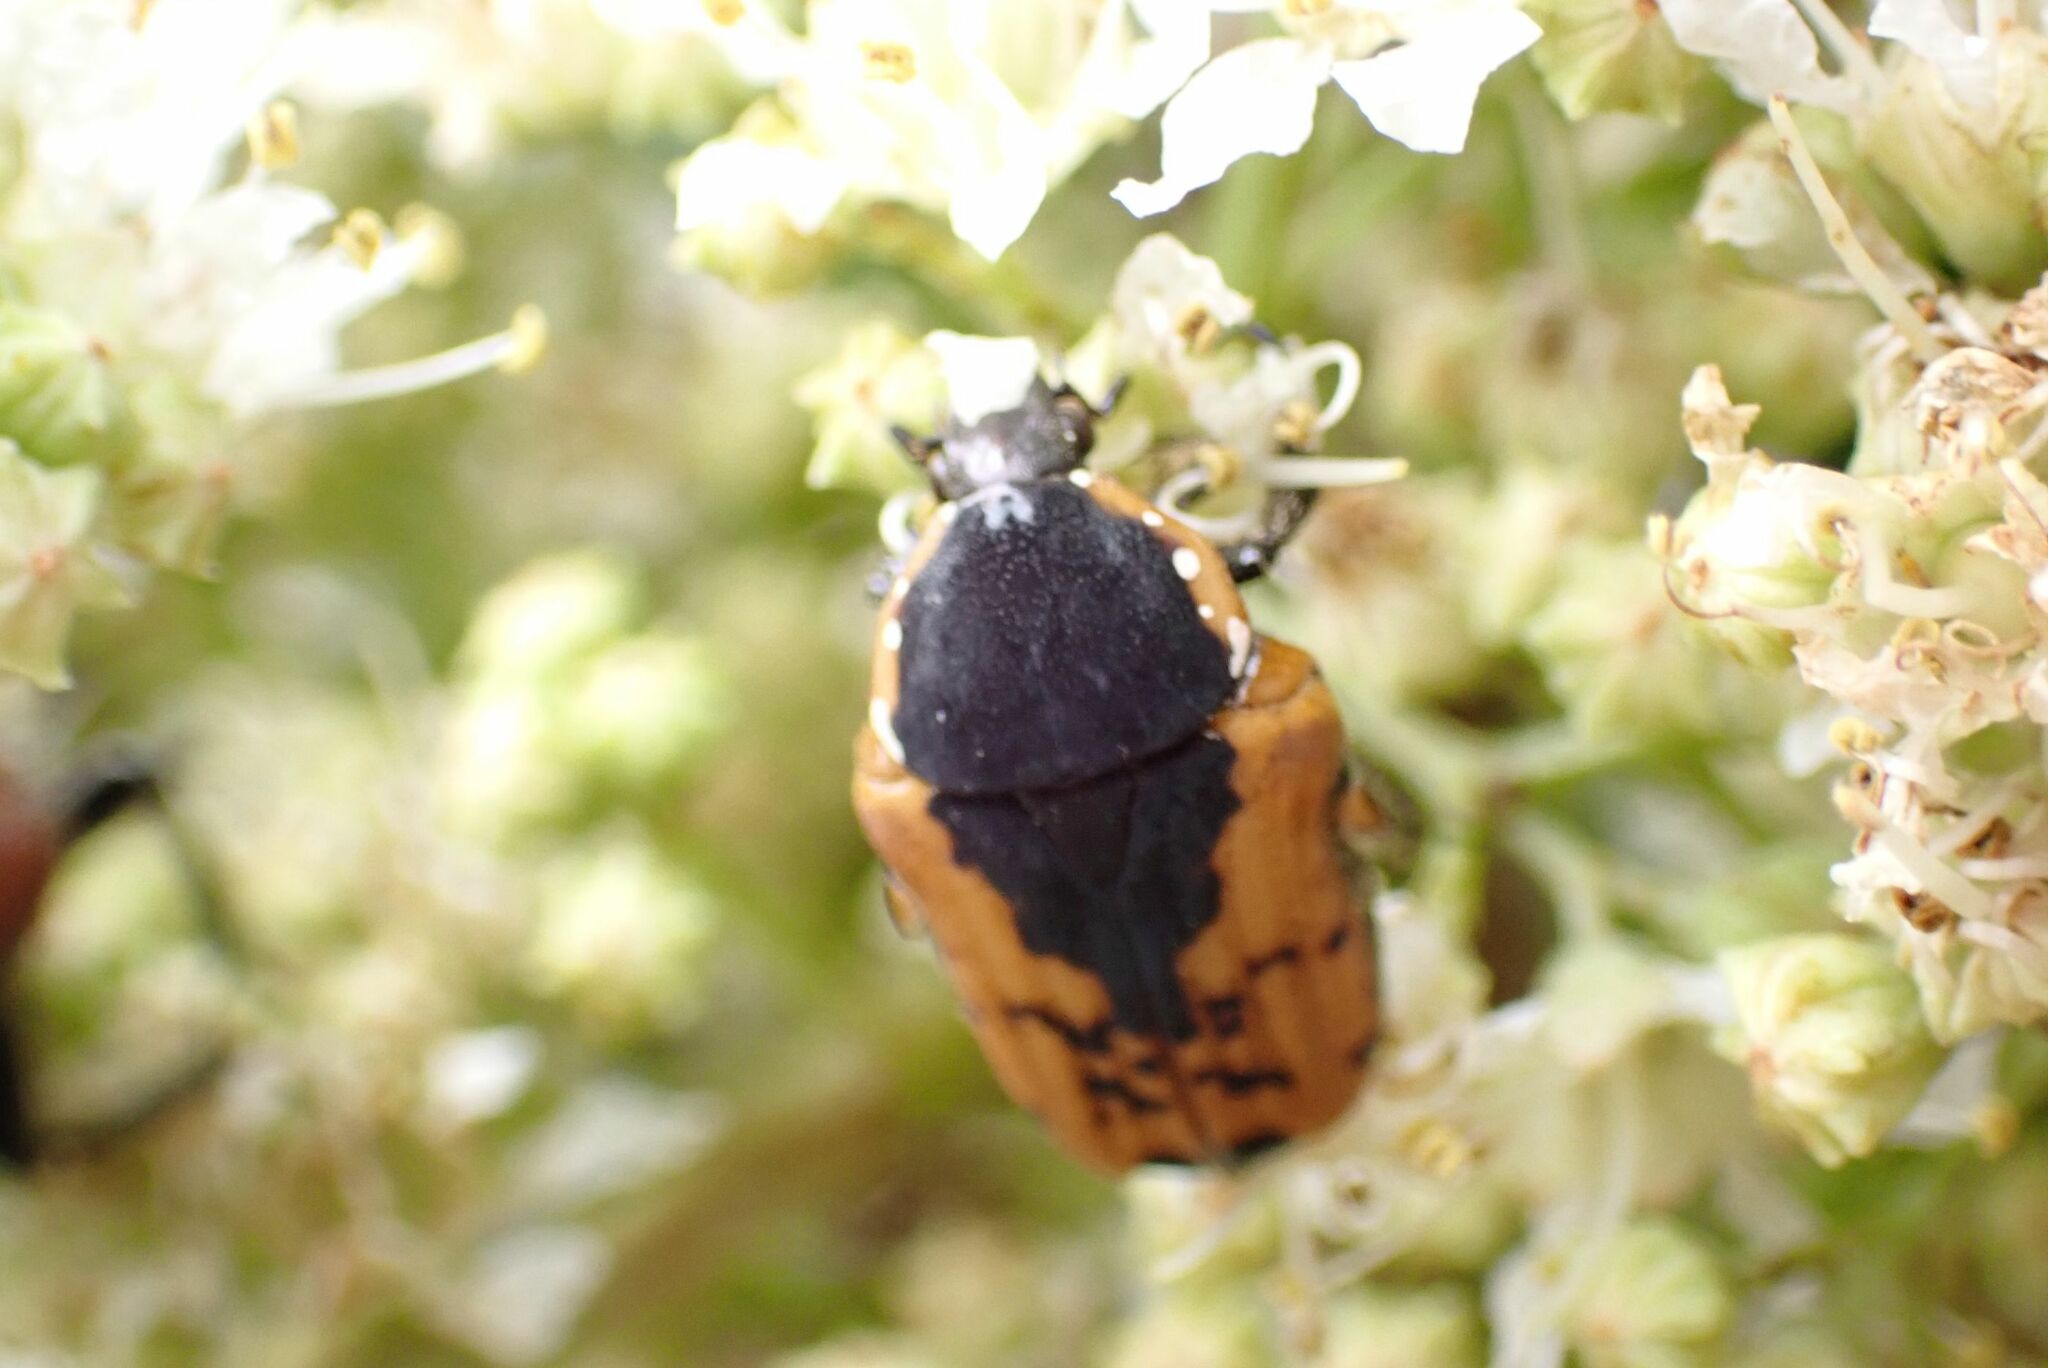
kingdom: Animalia
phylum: Arthropoda
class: Insecta
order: Coleoptera
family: Scarabaeidae
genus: Dolichostethus
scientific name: Dolichostethus levis
